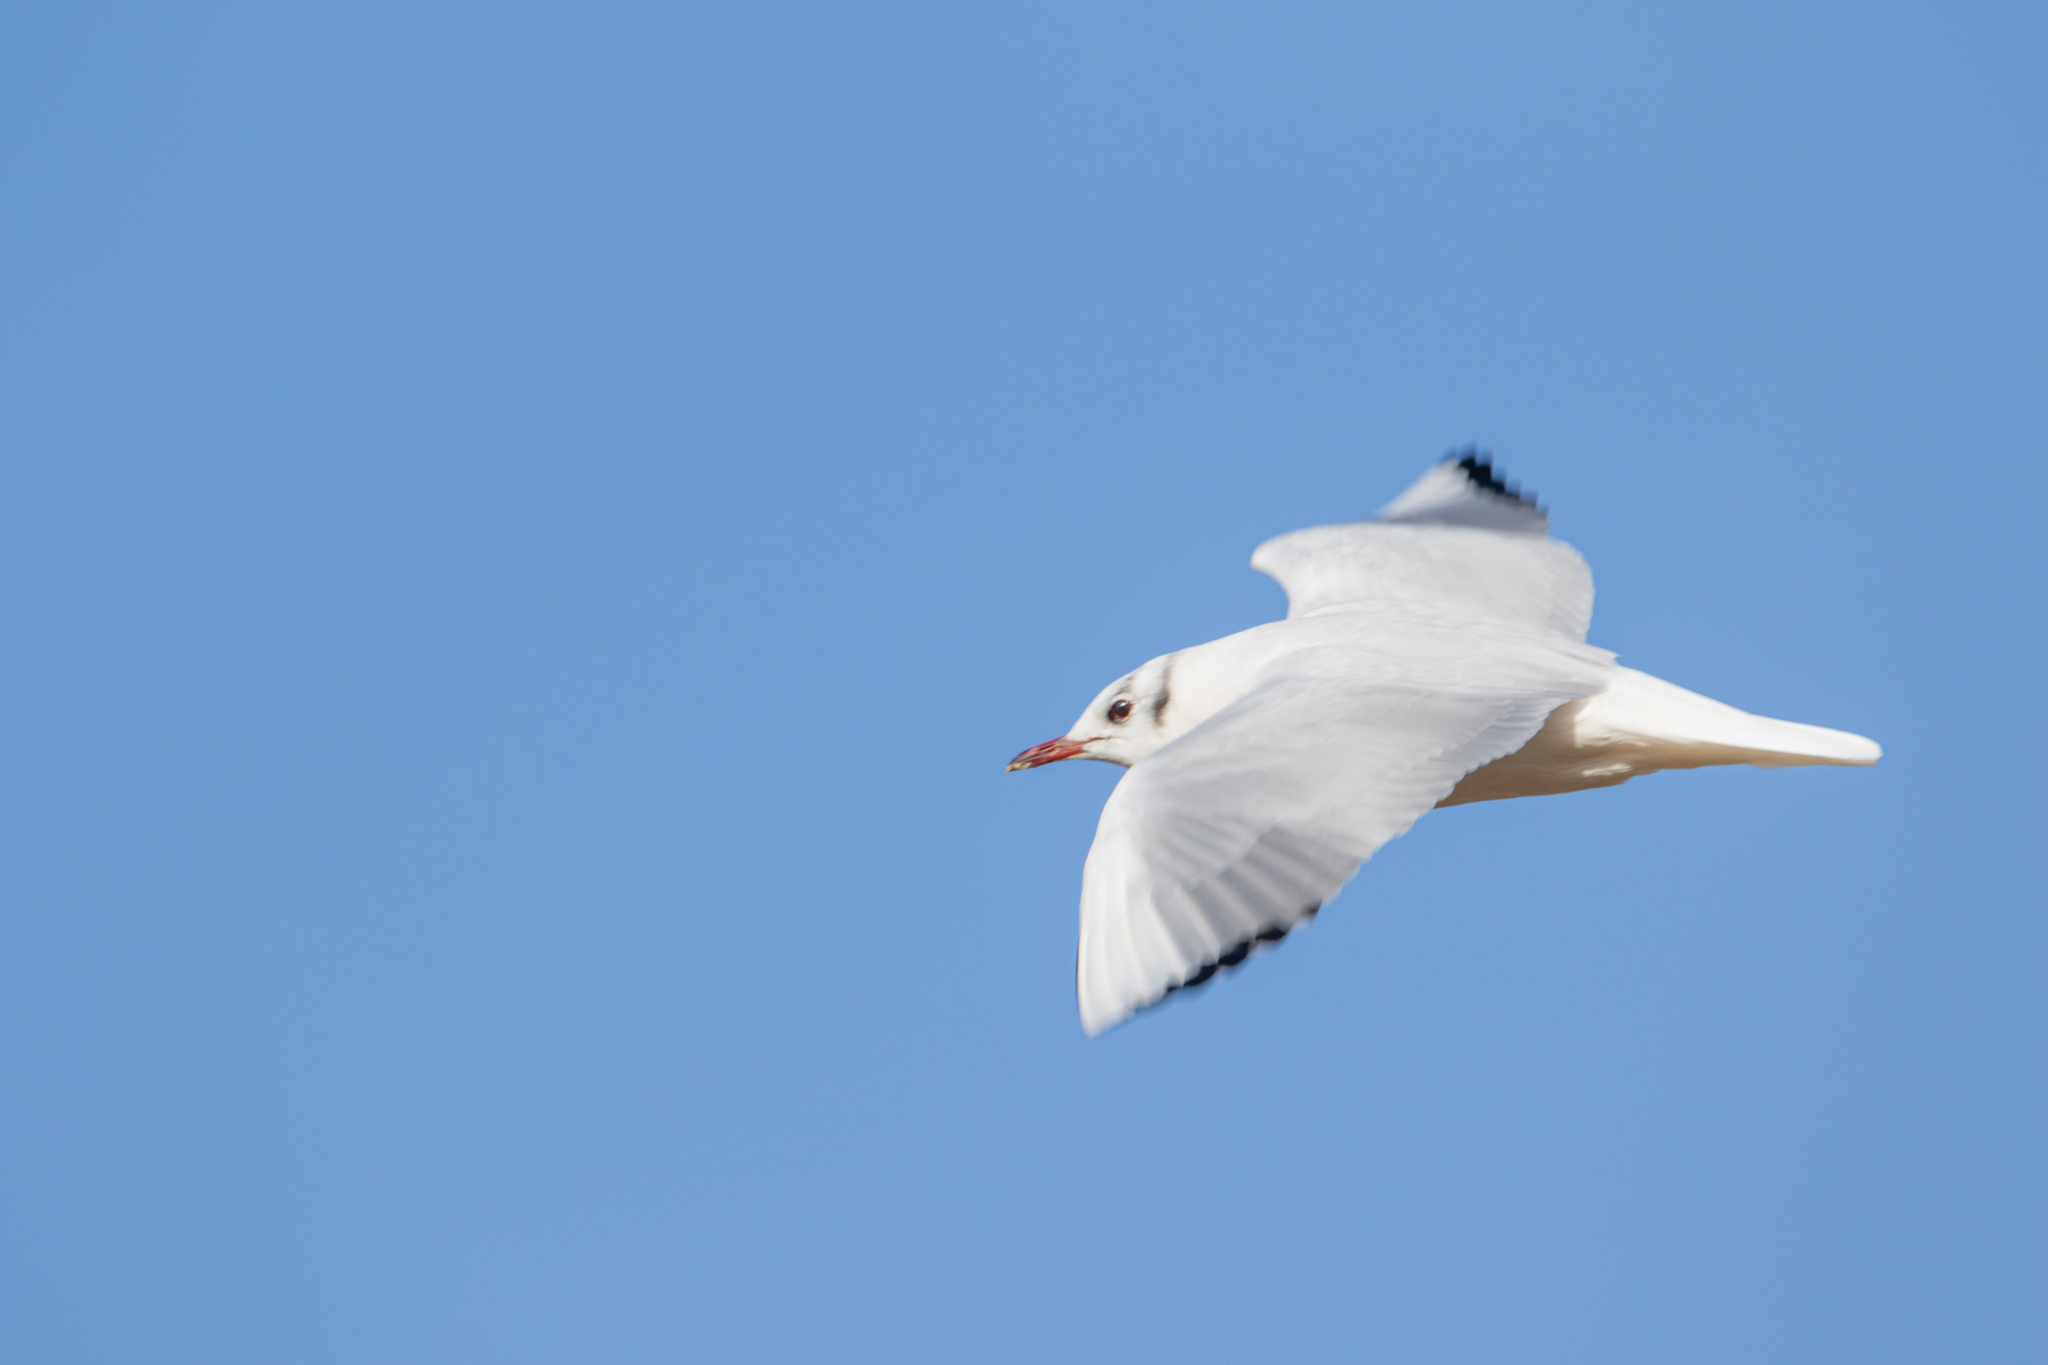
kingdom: Animalia
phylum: Chordata
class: Aves
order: Charadriiformes
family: Laridae
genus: Chroicocephalus
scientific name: Chroicocephalus ridibundus
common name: Black-headed gull
